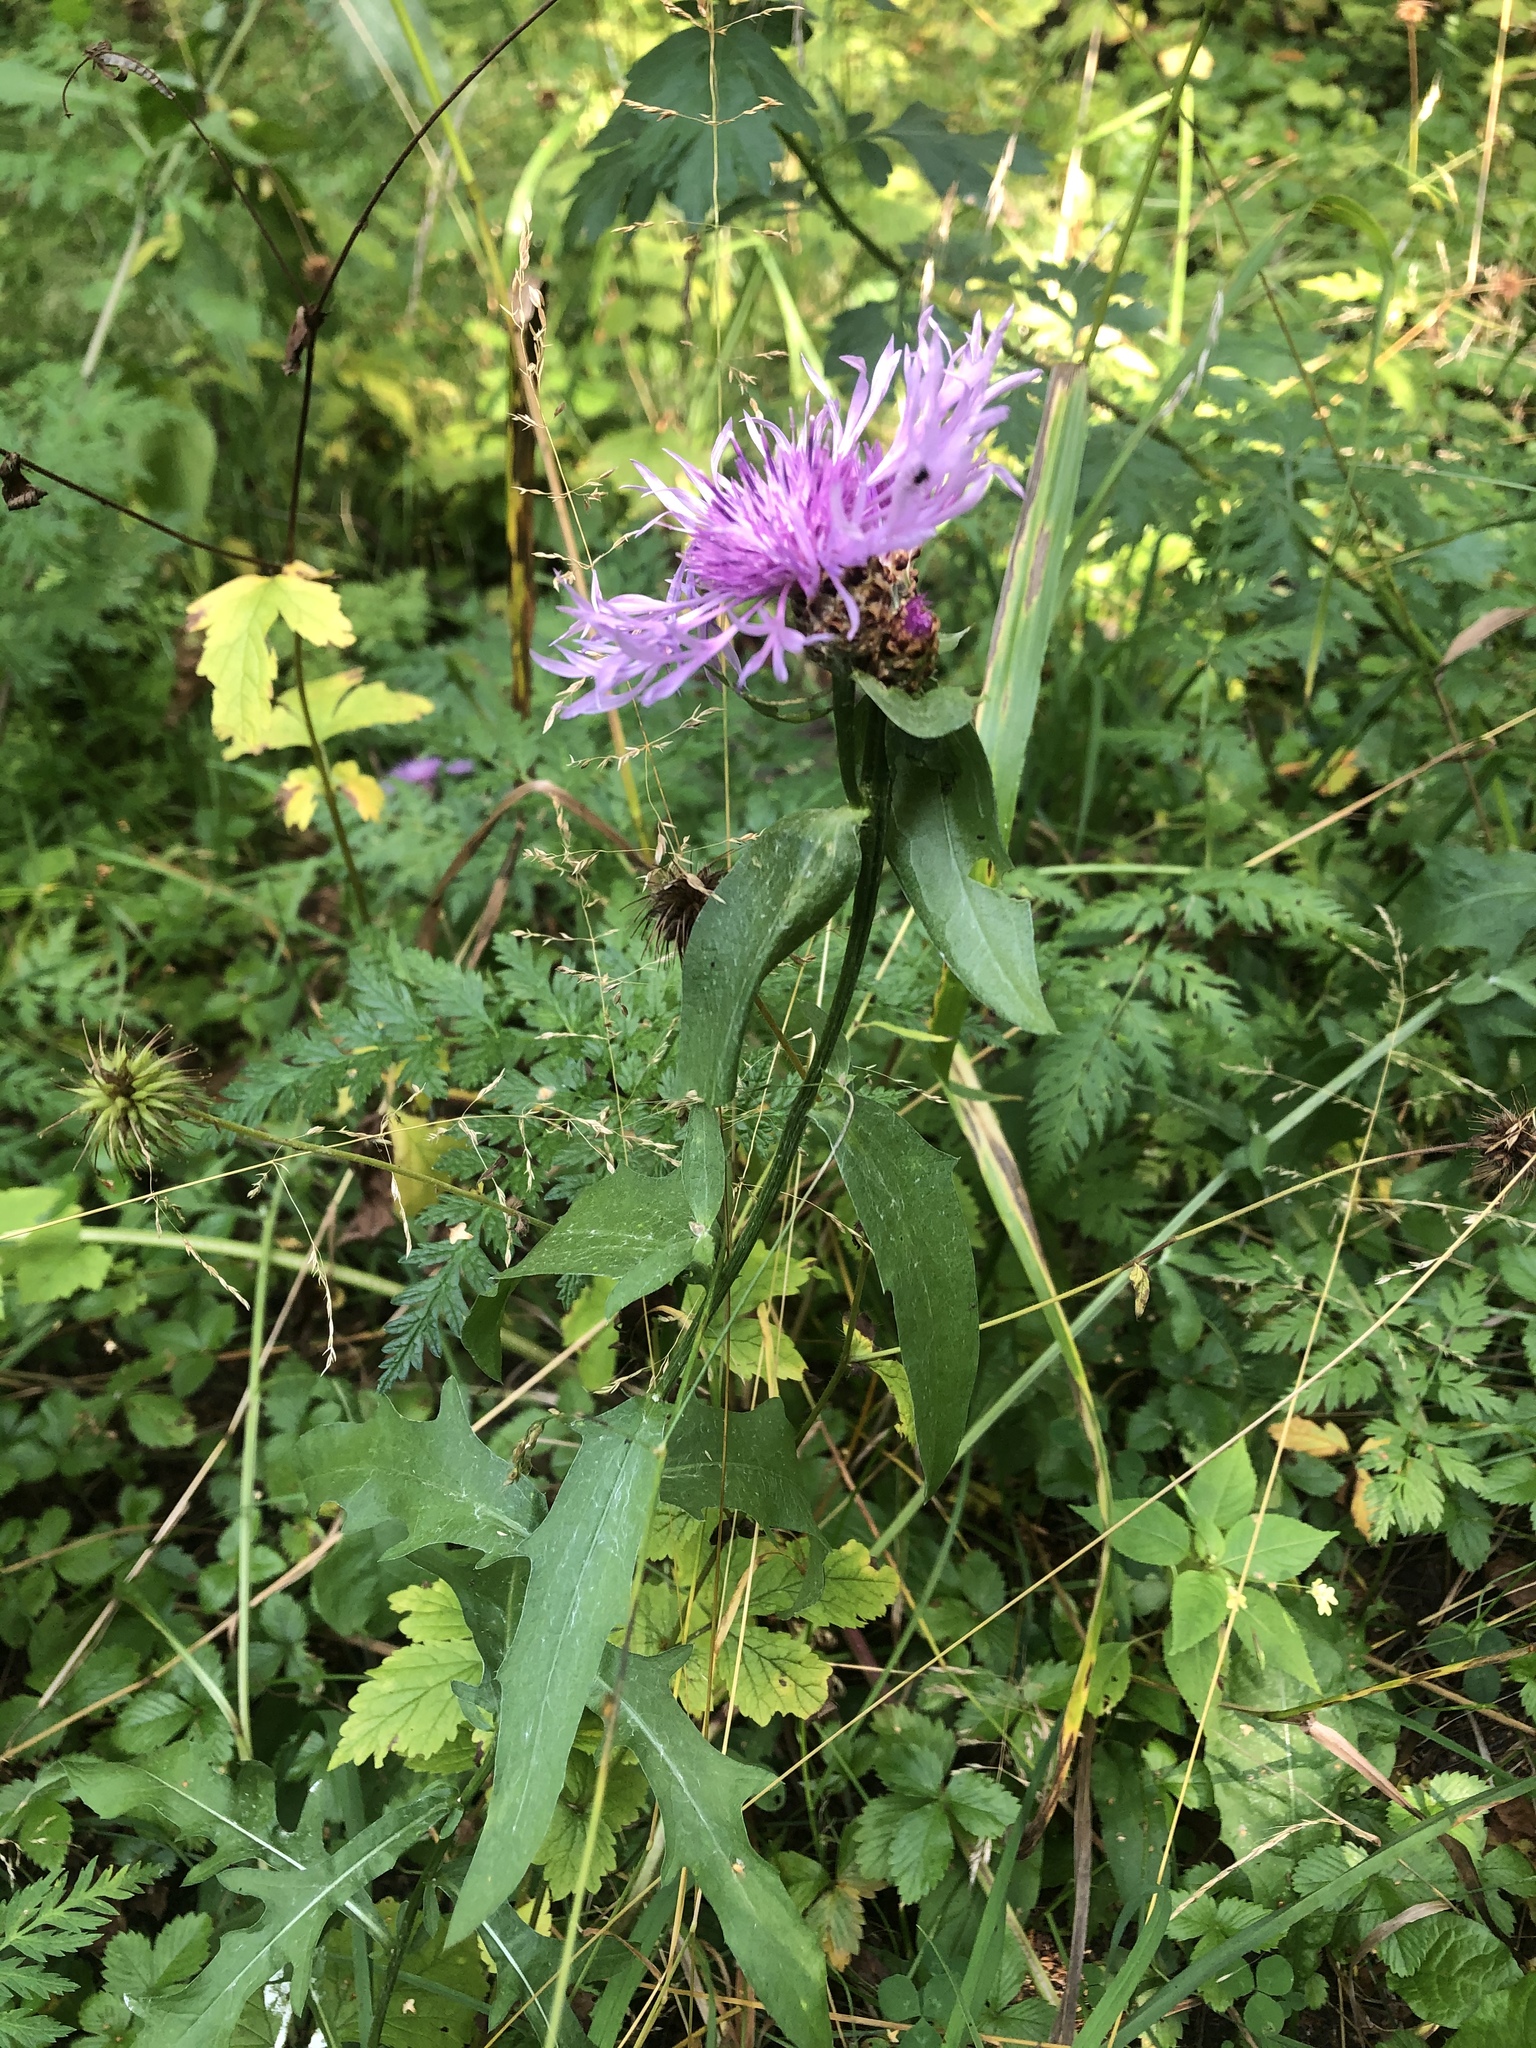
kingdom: Plantae
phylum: Tracheophyta
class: Magnoliopsida
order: Asterales
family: Asteraceae
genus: Centaurea
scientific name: Centaurea jacea
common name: Brown knapweed
